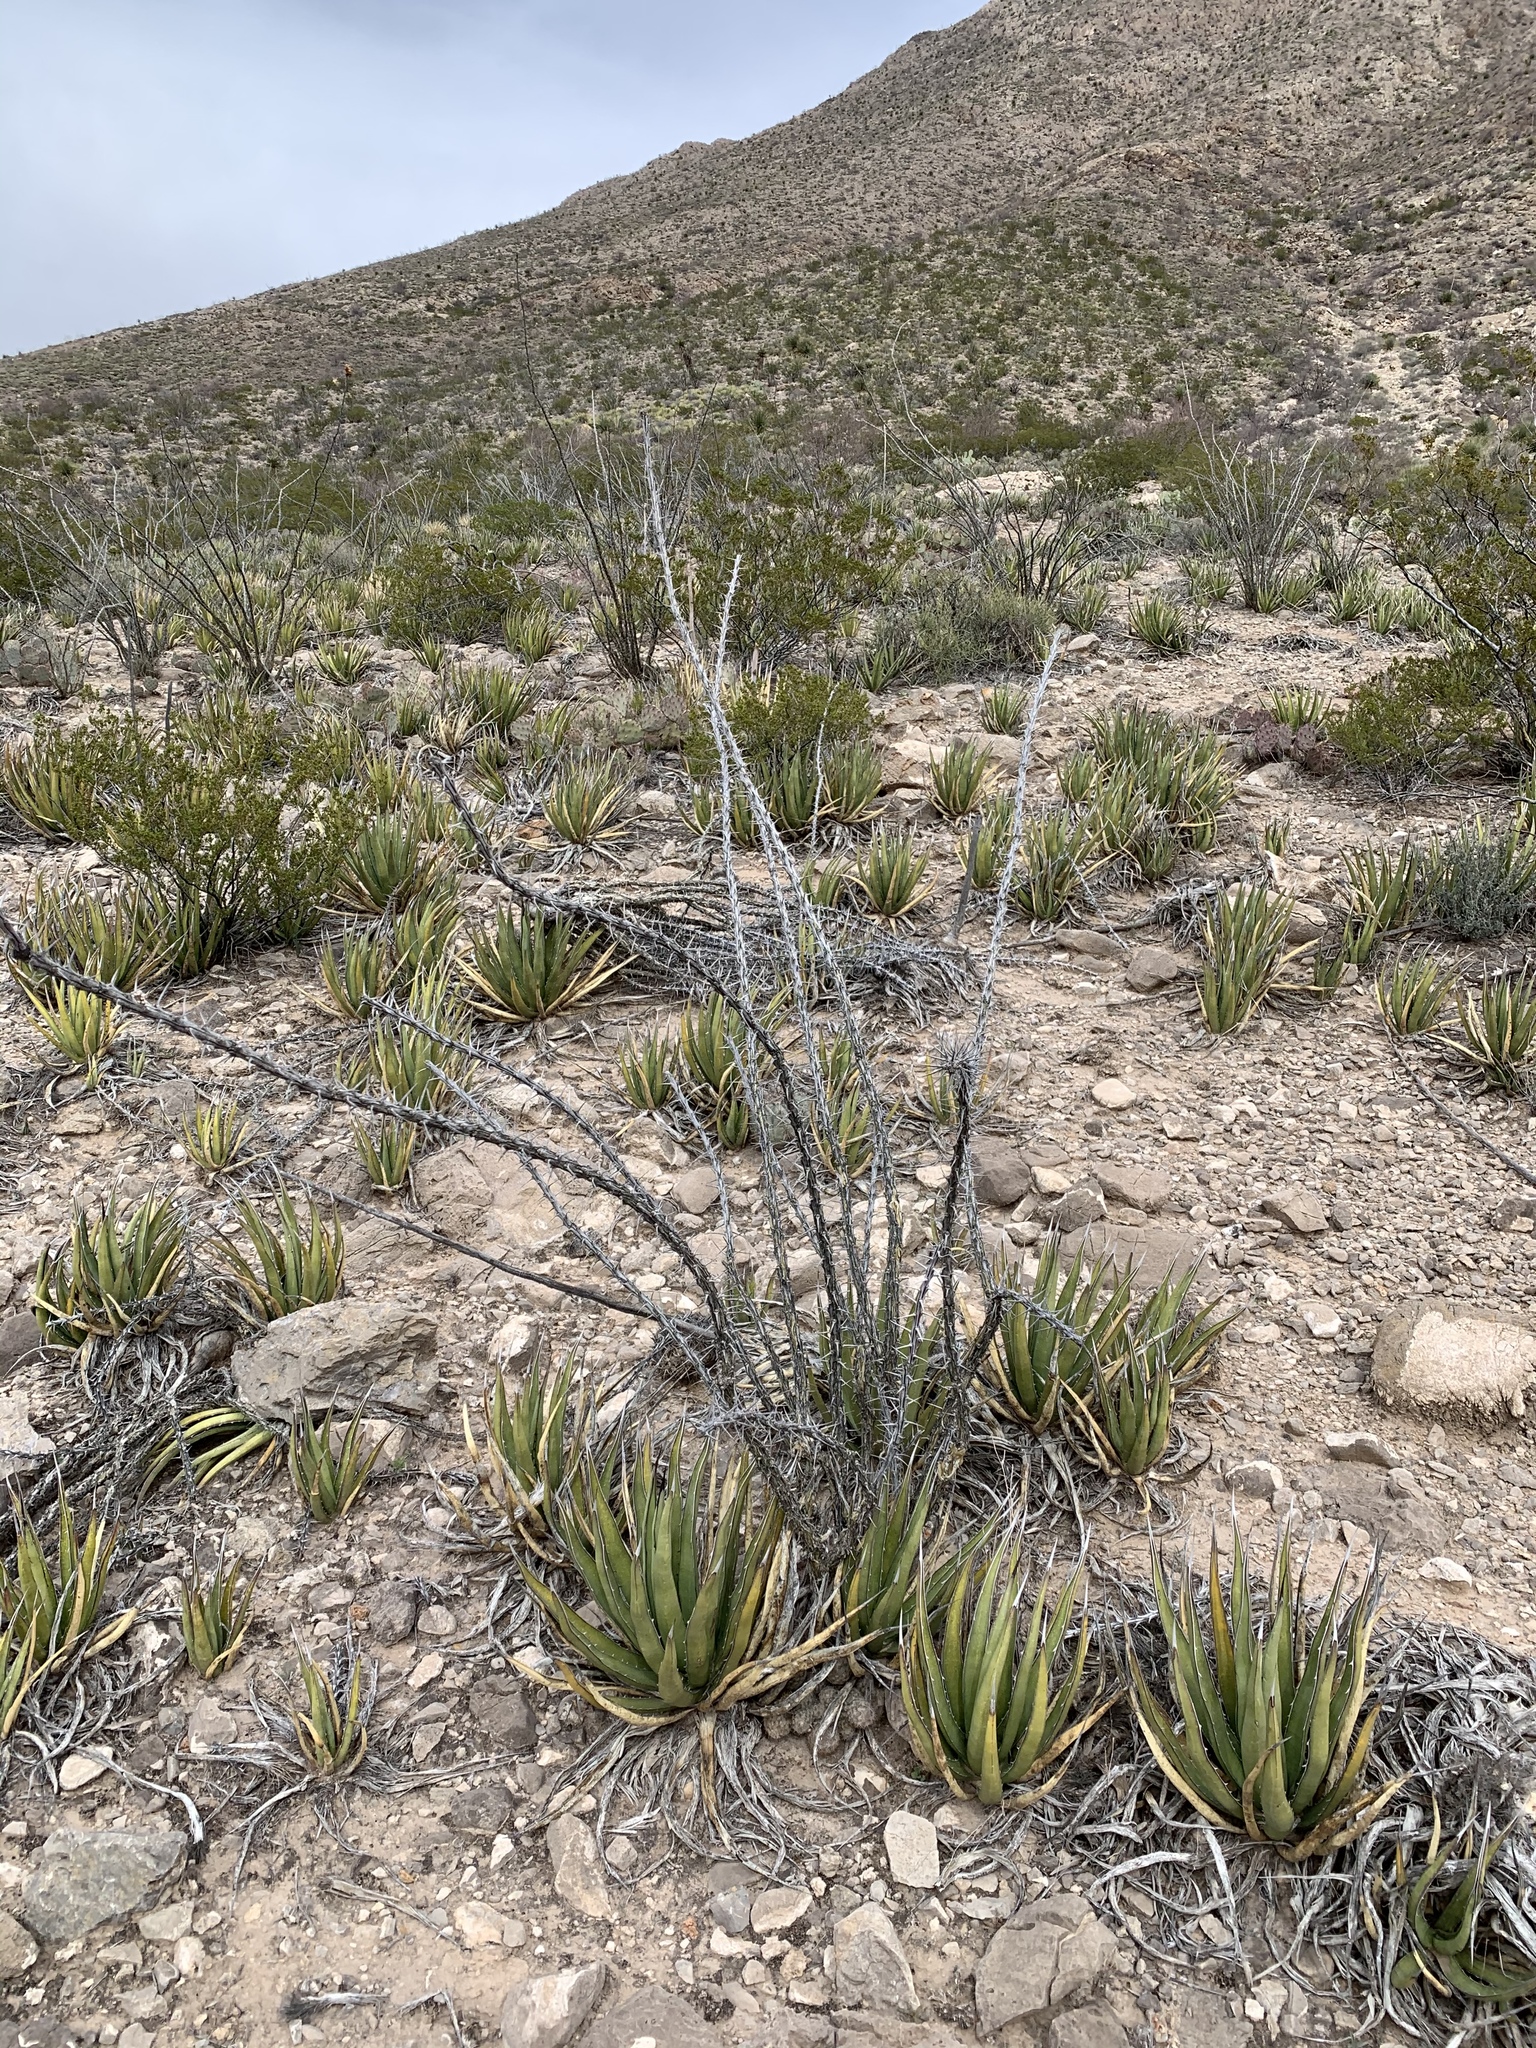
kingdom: Plantae
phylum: Tracheophyta
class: Liliopsida
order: Asparagales
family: Asparagaceae
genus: Agave
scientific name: Agave lechuguilla
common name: Lecheguilla agave
